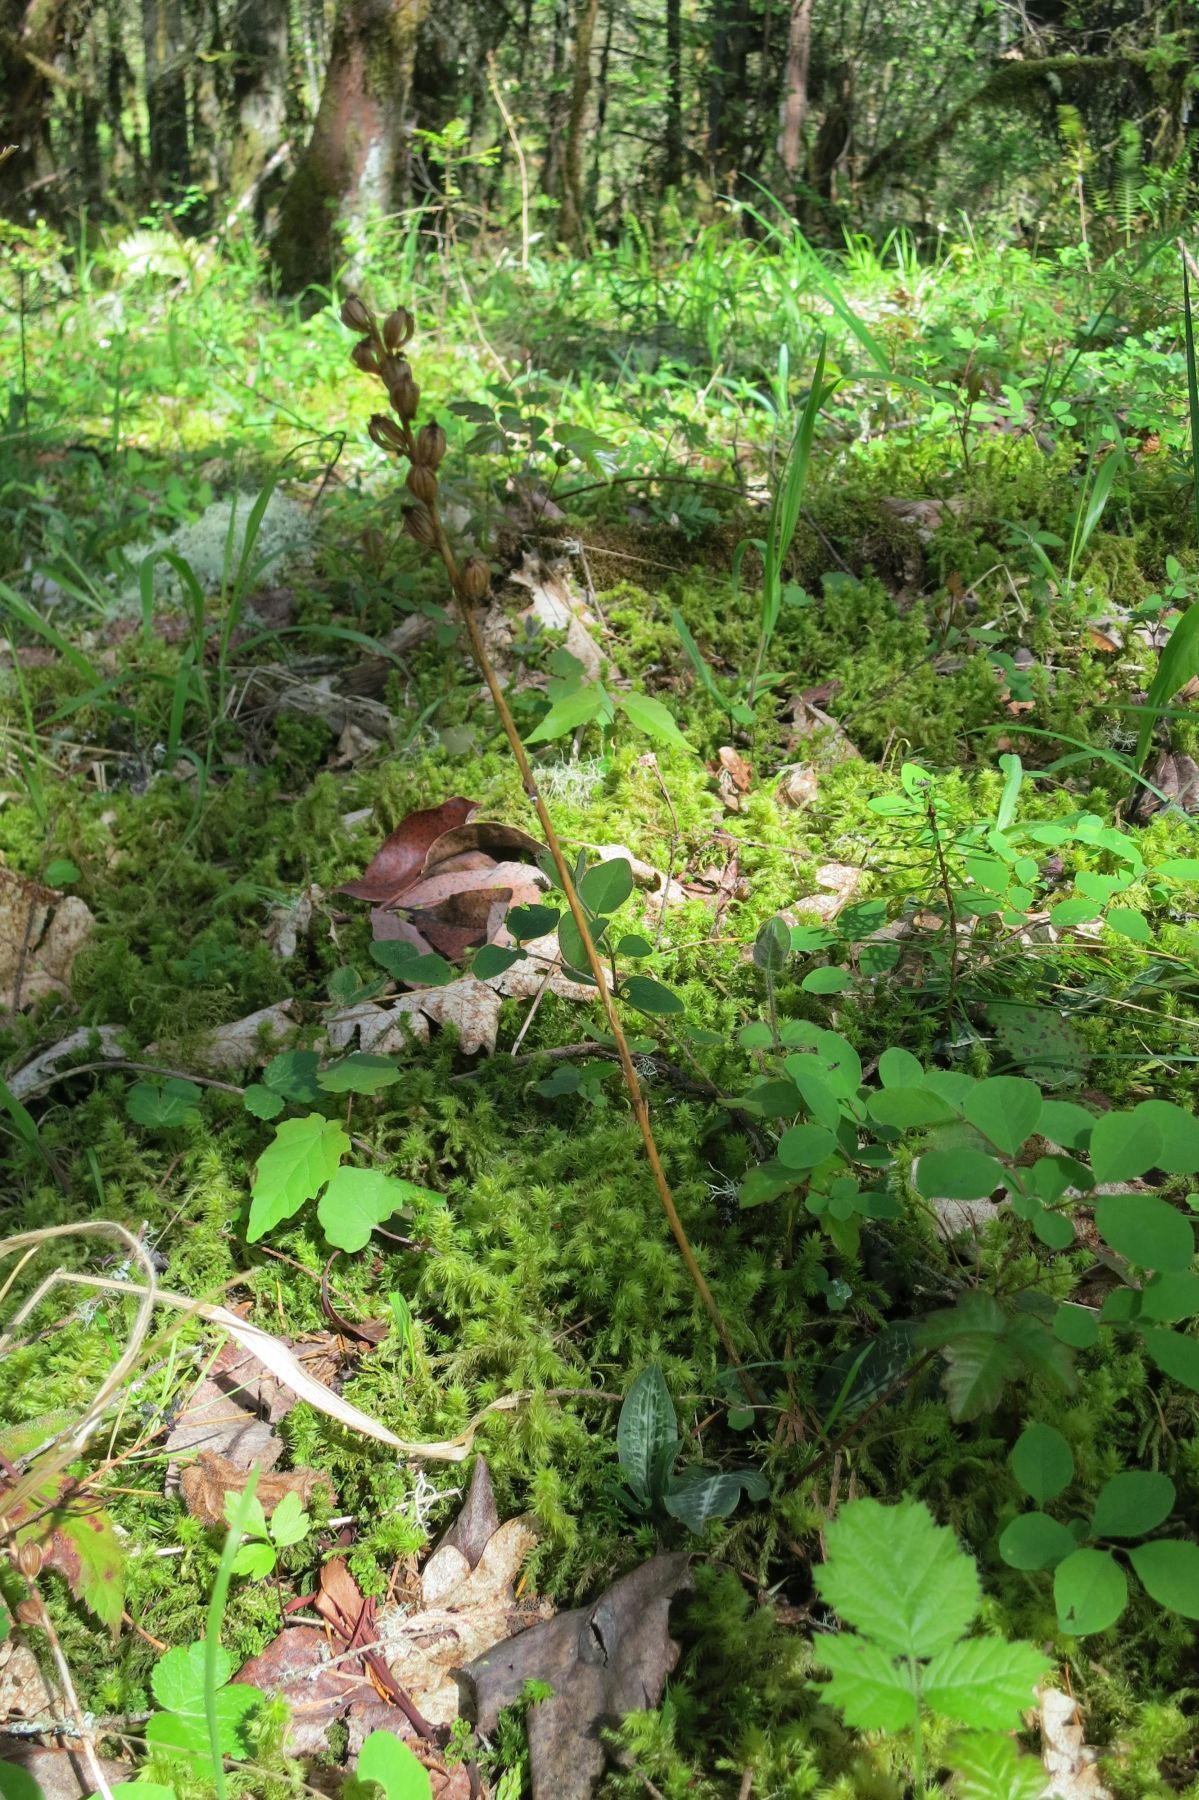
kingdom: Plantae
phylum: Tracheophyta
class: Liliopsida
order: Asparagales
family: Orchidaceae
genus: Goodyera
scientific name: Goodyera oblongifolia
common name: Giant rattlesnake-plantain
